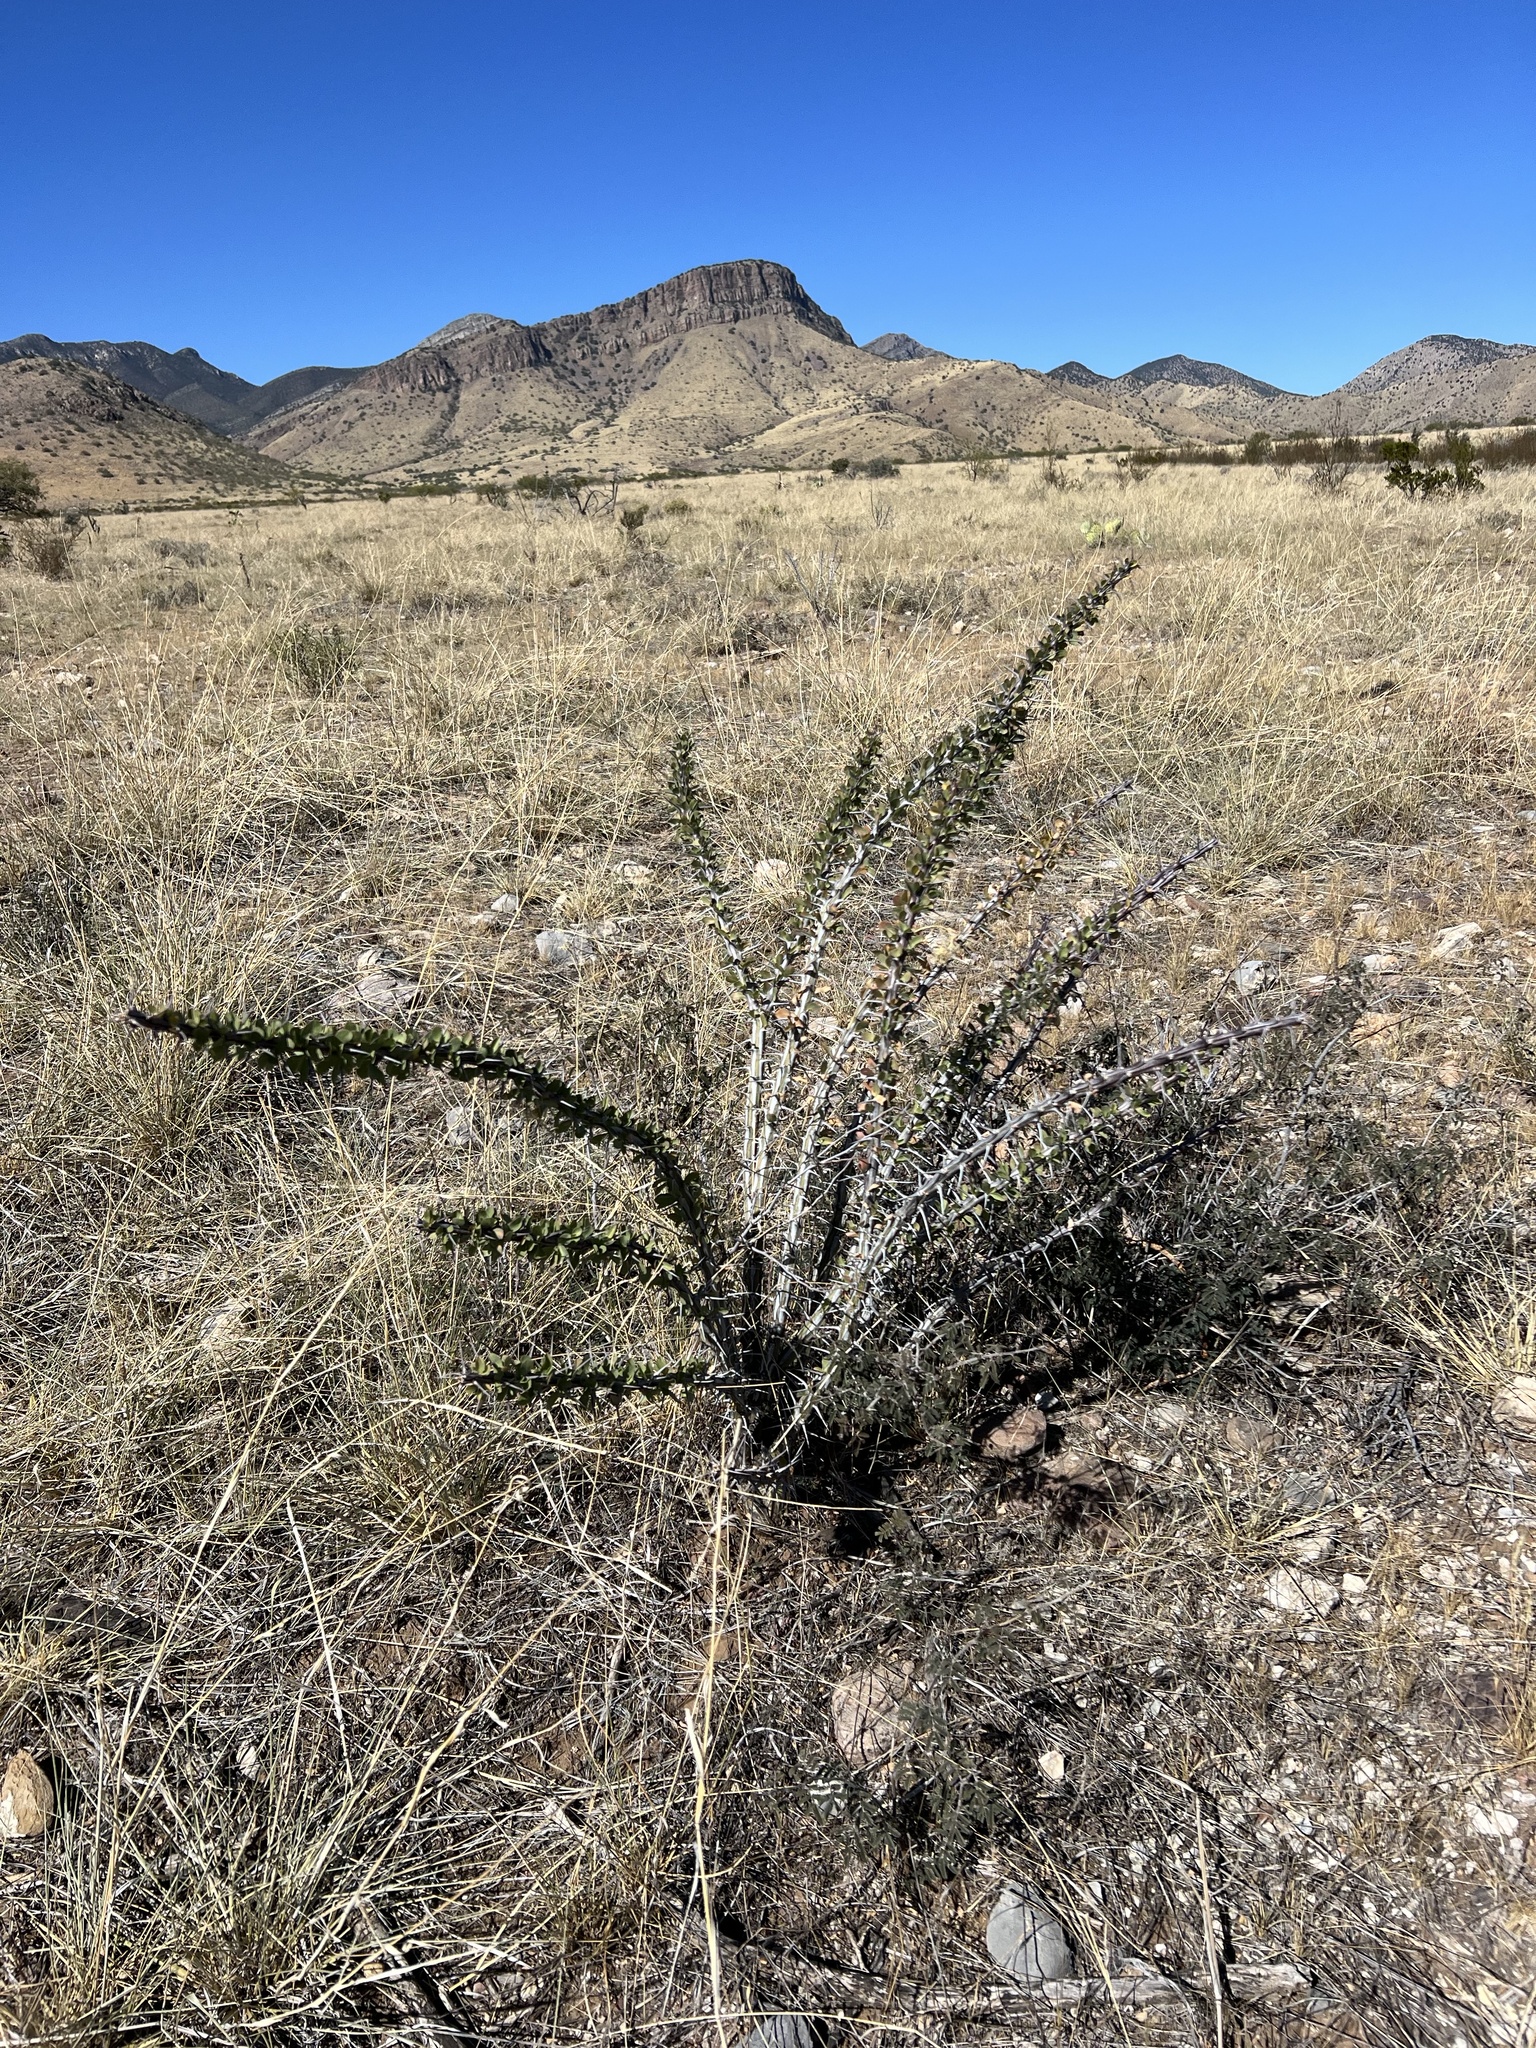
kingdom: Plantae
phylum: Tracheophyta
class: Magnoliopsida
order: Ericales
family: Fouquieriaceae
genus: Fouquieria
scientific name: Fouquieria splendens
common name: Vine-cactus
